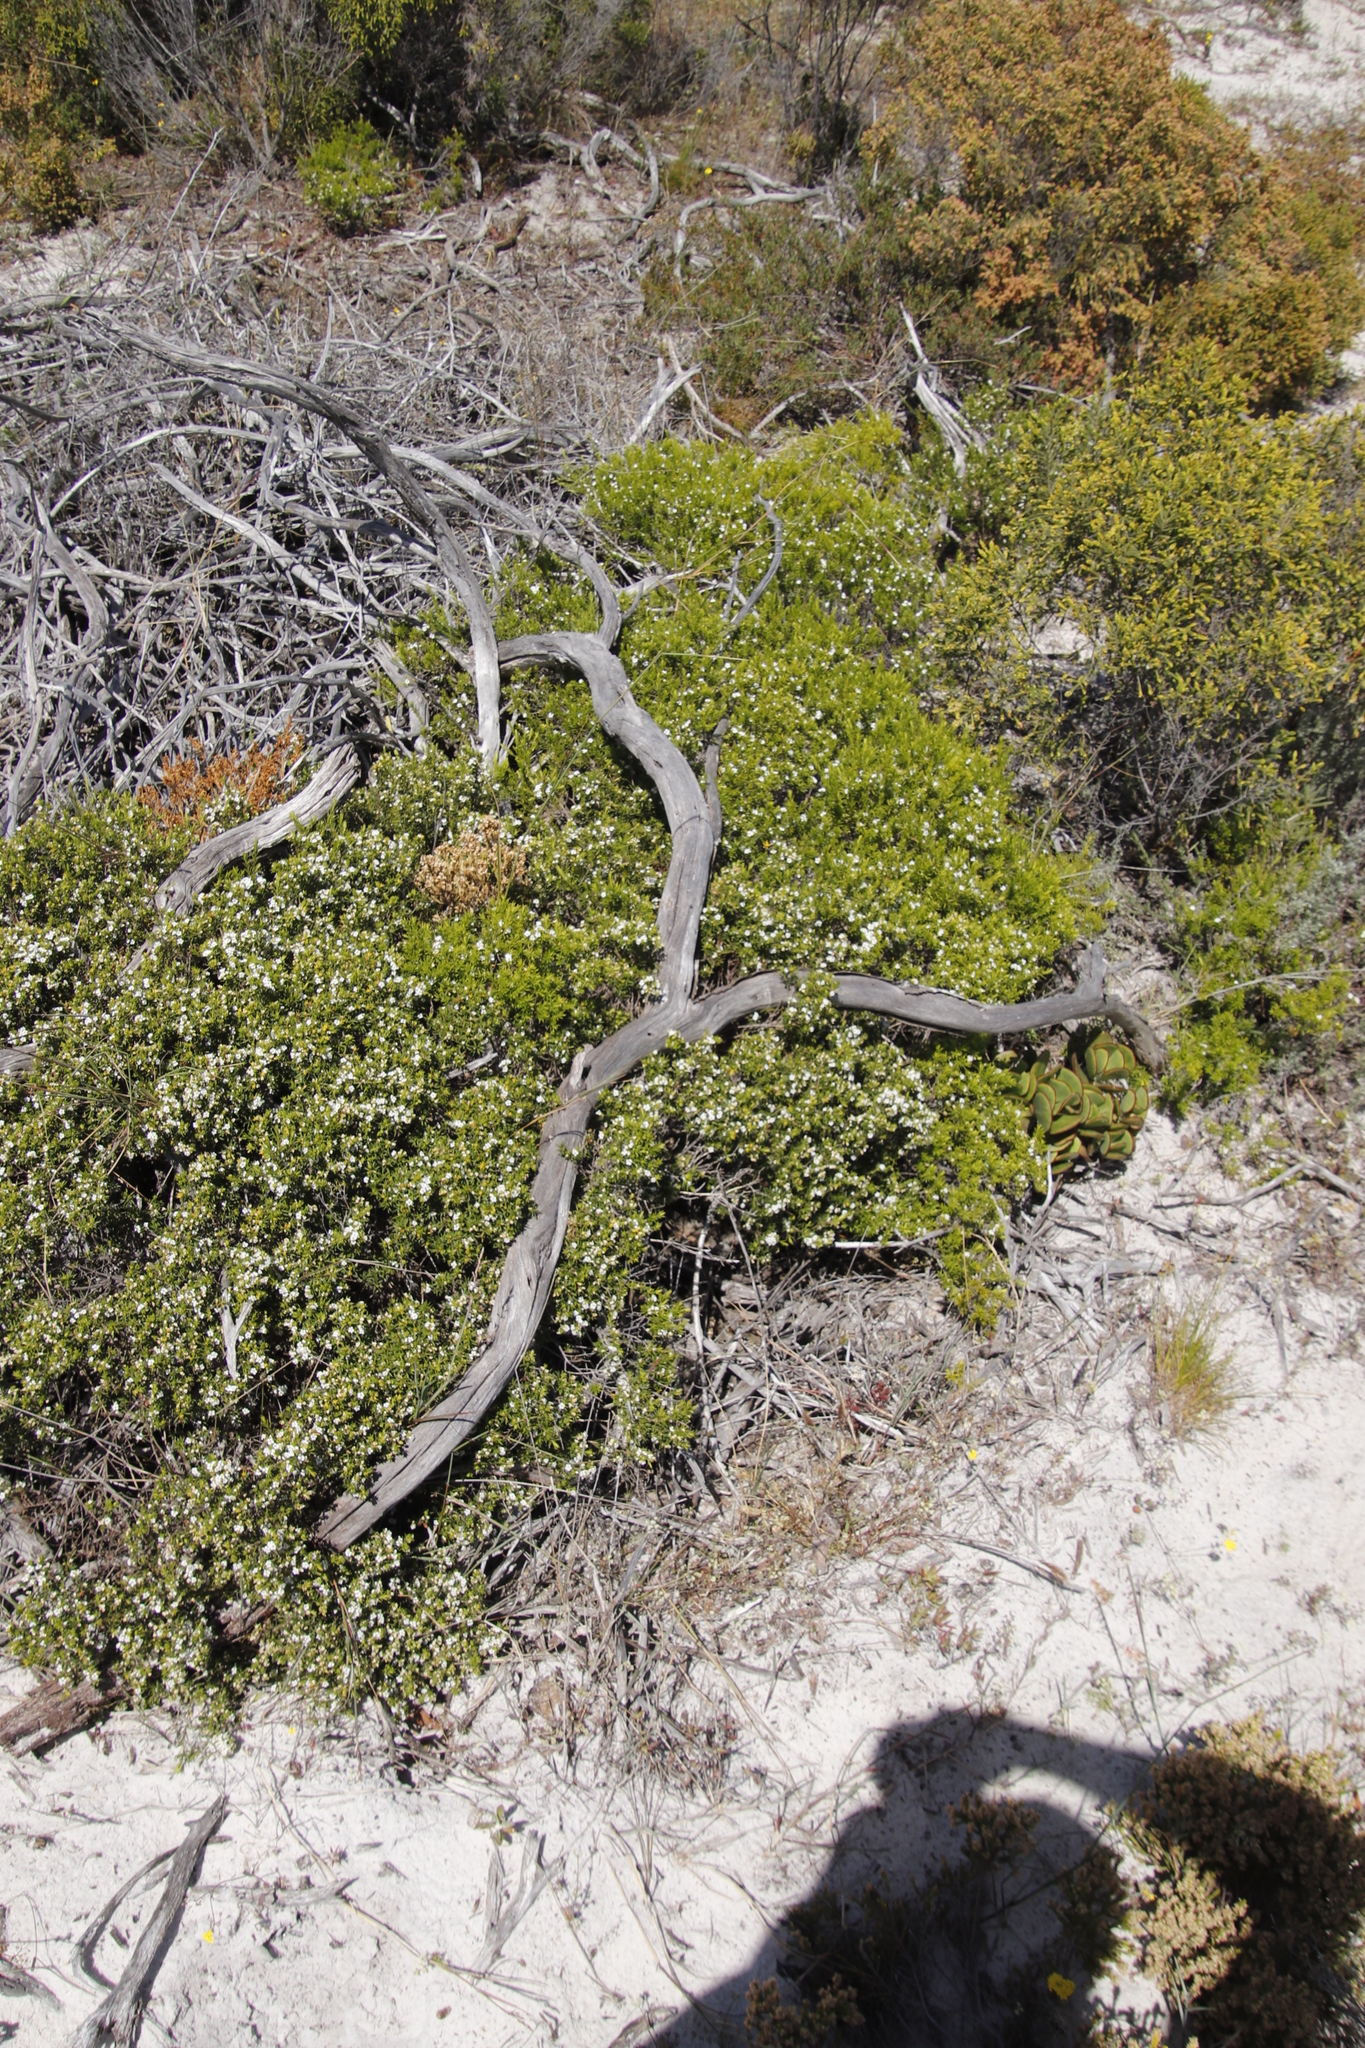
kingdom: Plantae
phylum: Tracheophyta
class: Magnoliopsida
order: Sapindales
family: Rutaceae
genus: Coleonema
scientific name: Coleonema album
